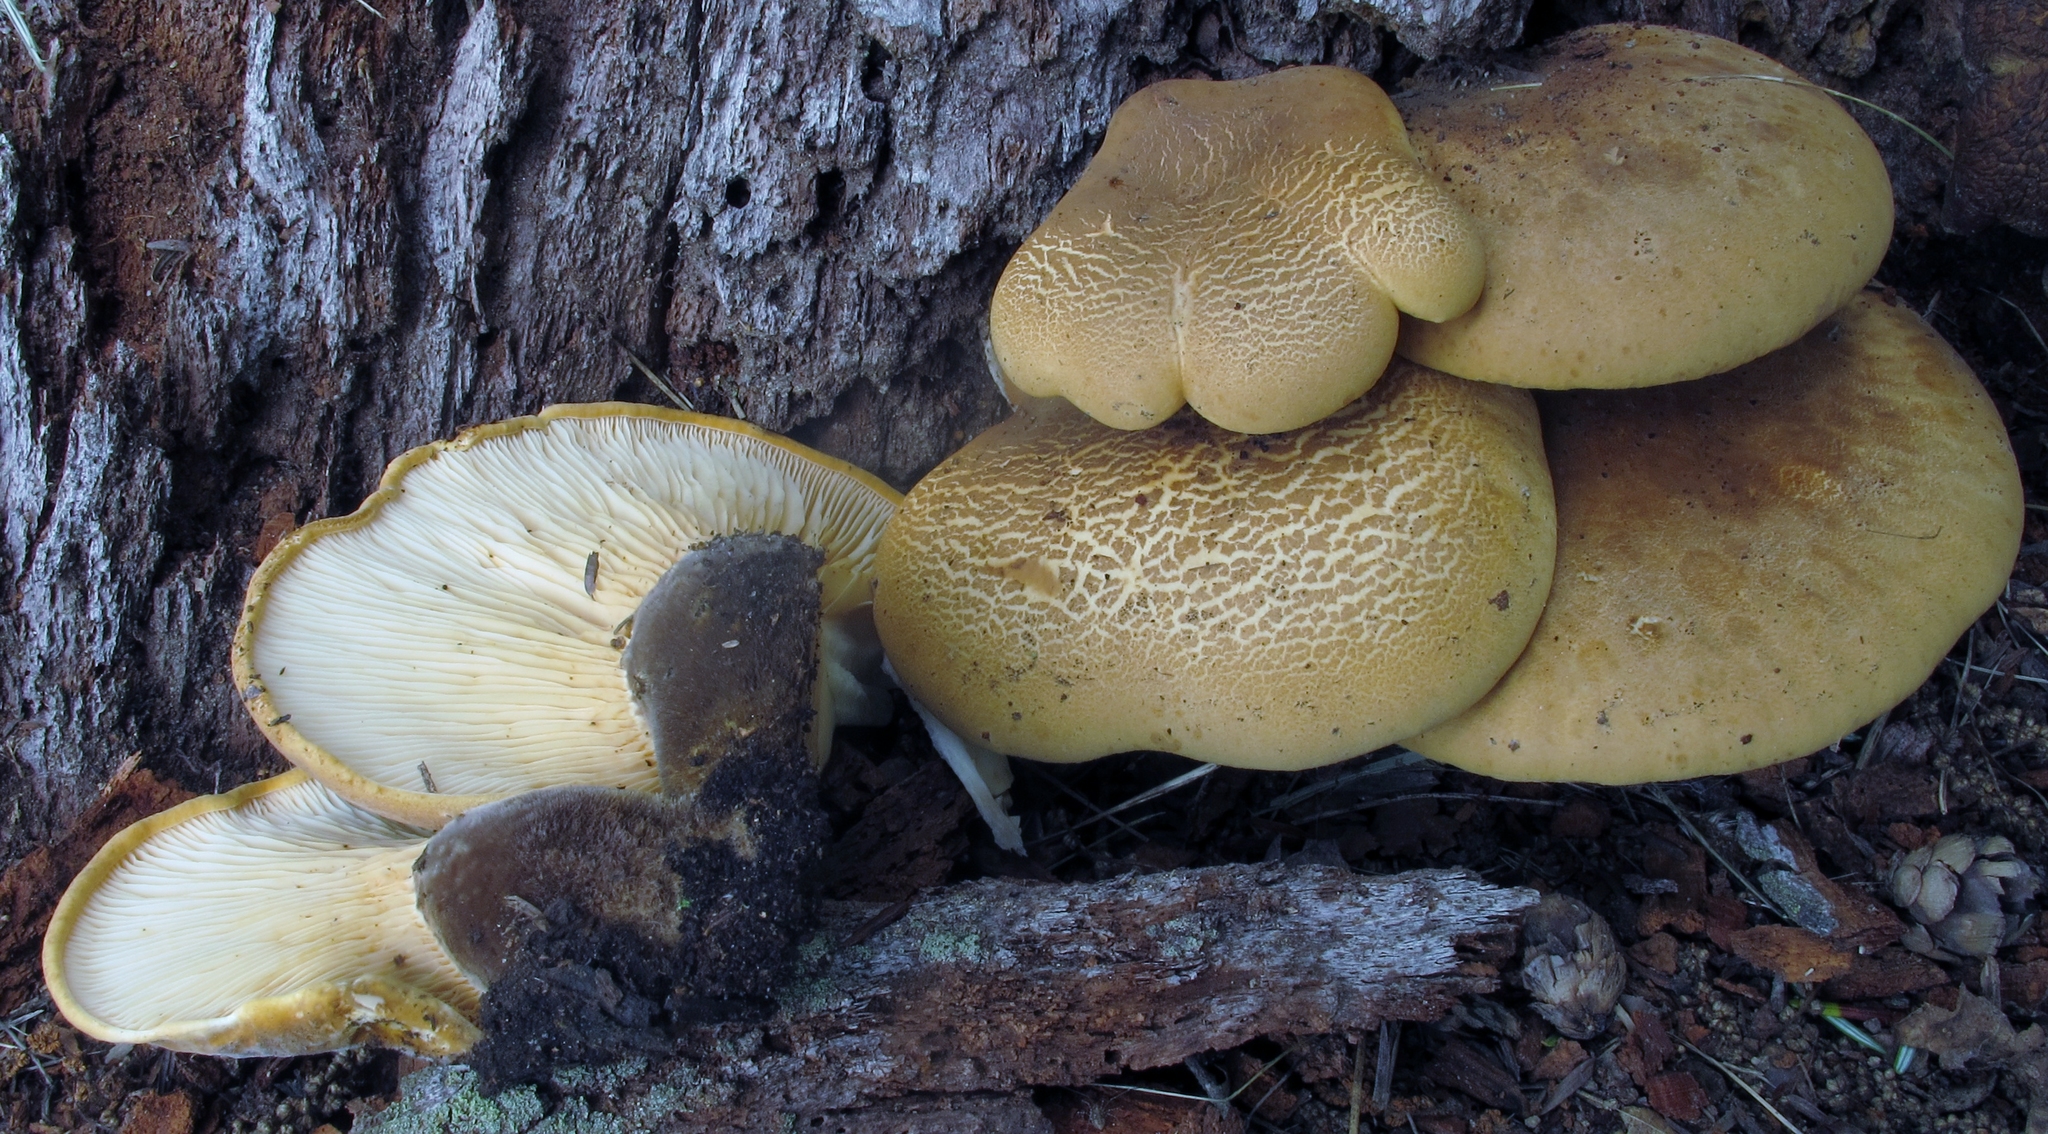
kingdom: Fungi
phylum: Basidiomycota
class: Agaricomycetes
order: Boletales
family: Tapinellaceae
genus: Tapinella
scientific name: Tapinella atrotomentosa
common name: Velvet rollrim
